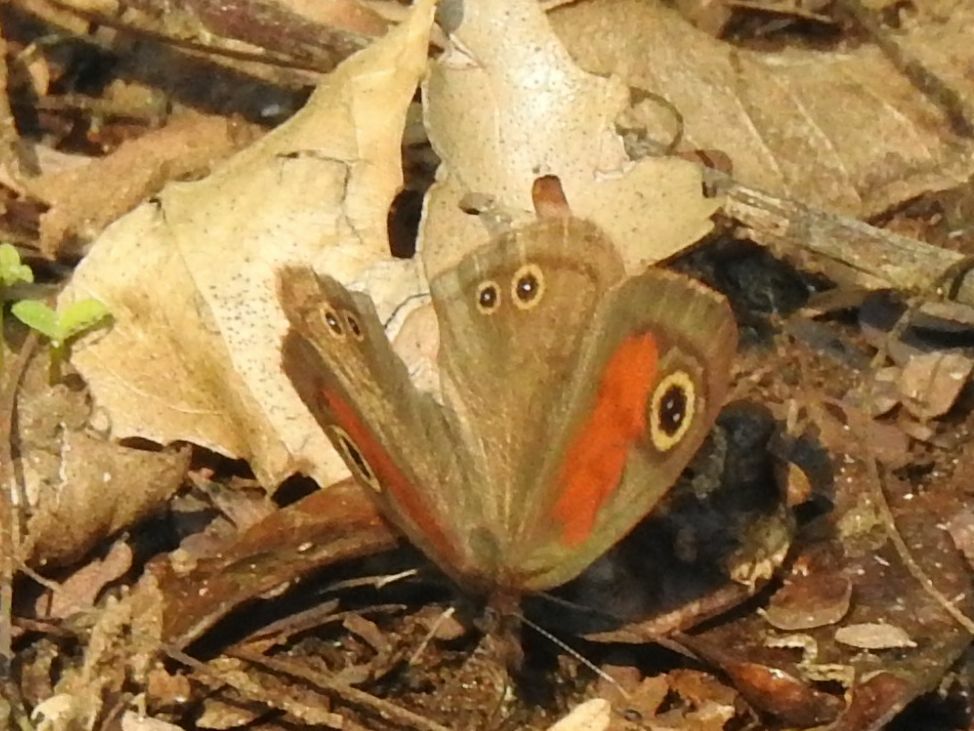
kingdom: Animalia
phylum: Arthropoda
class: Insecta
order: Lepidoptera
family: Nymphalidae
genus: Cassionympha
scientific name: Cassionympha cassius
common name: Rainforest brown
